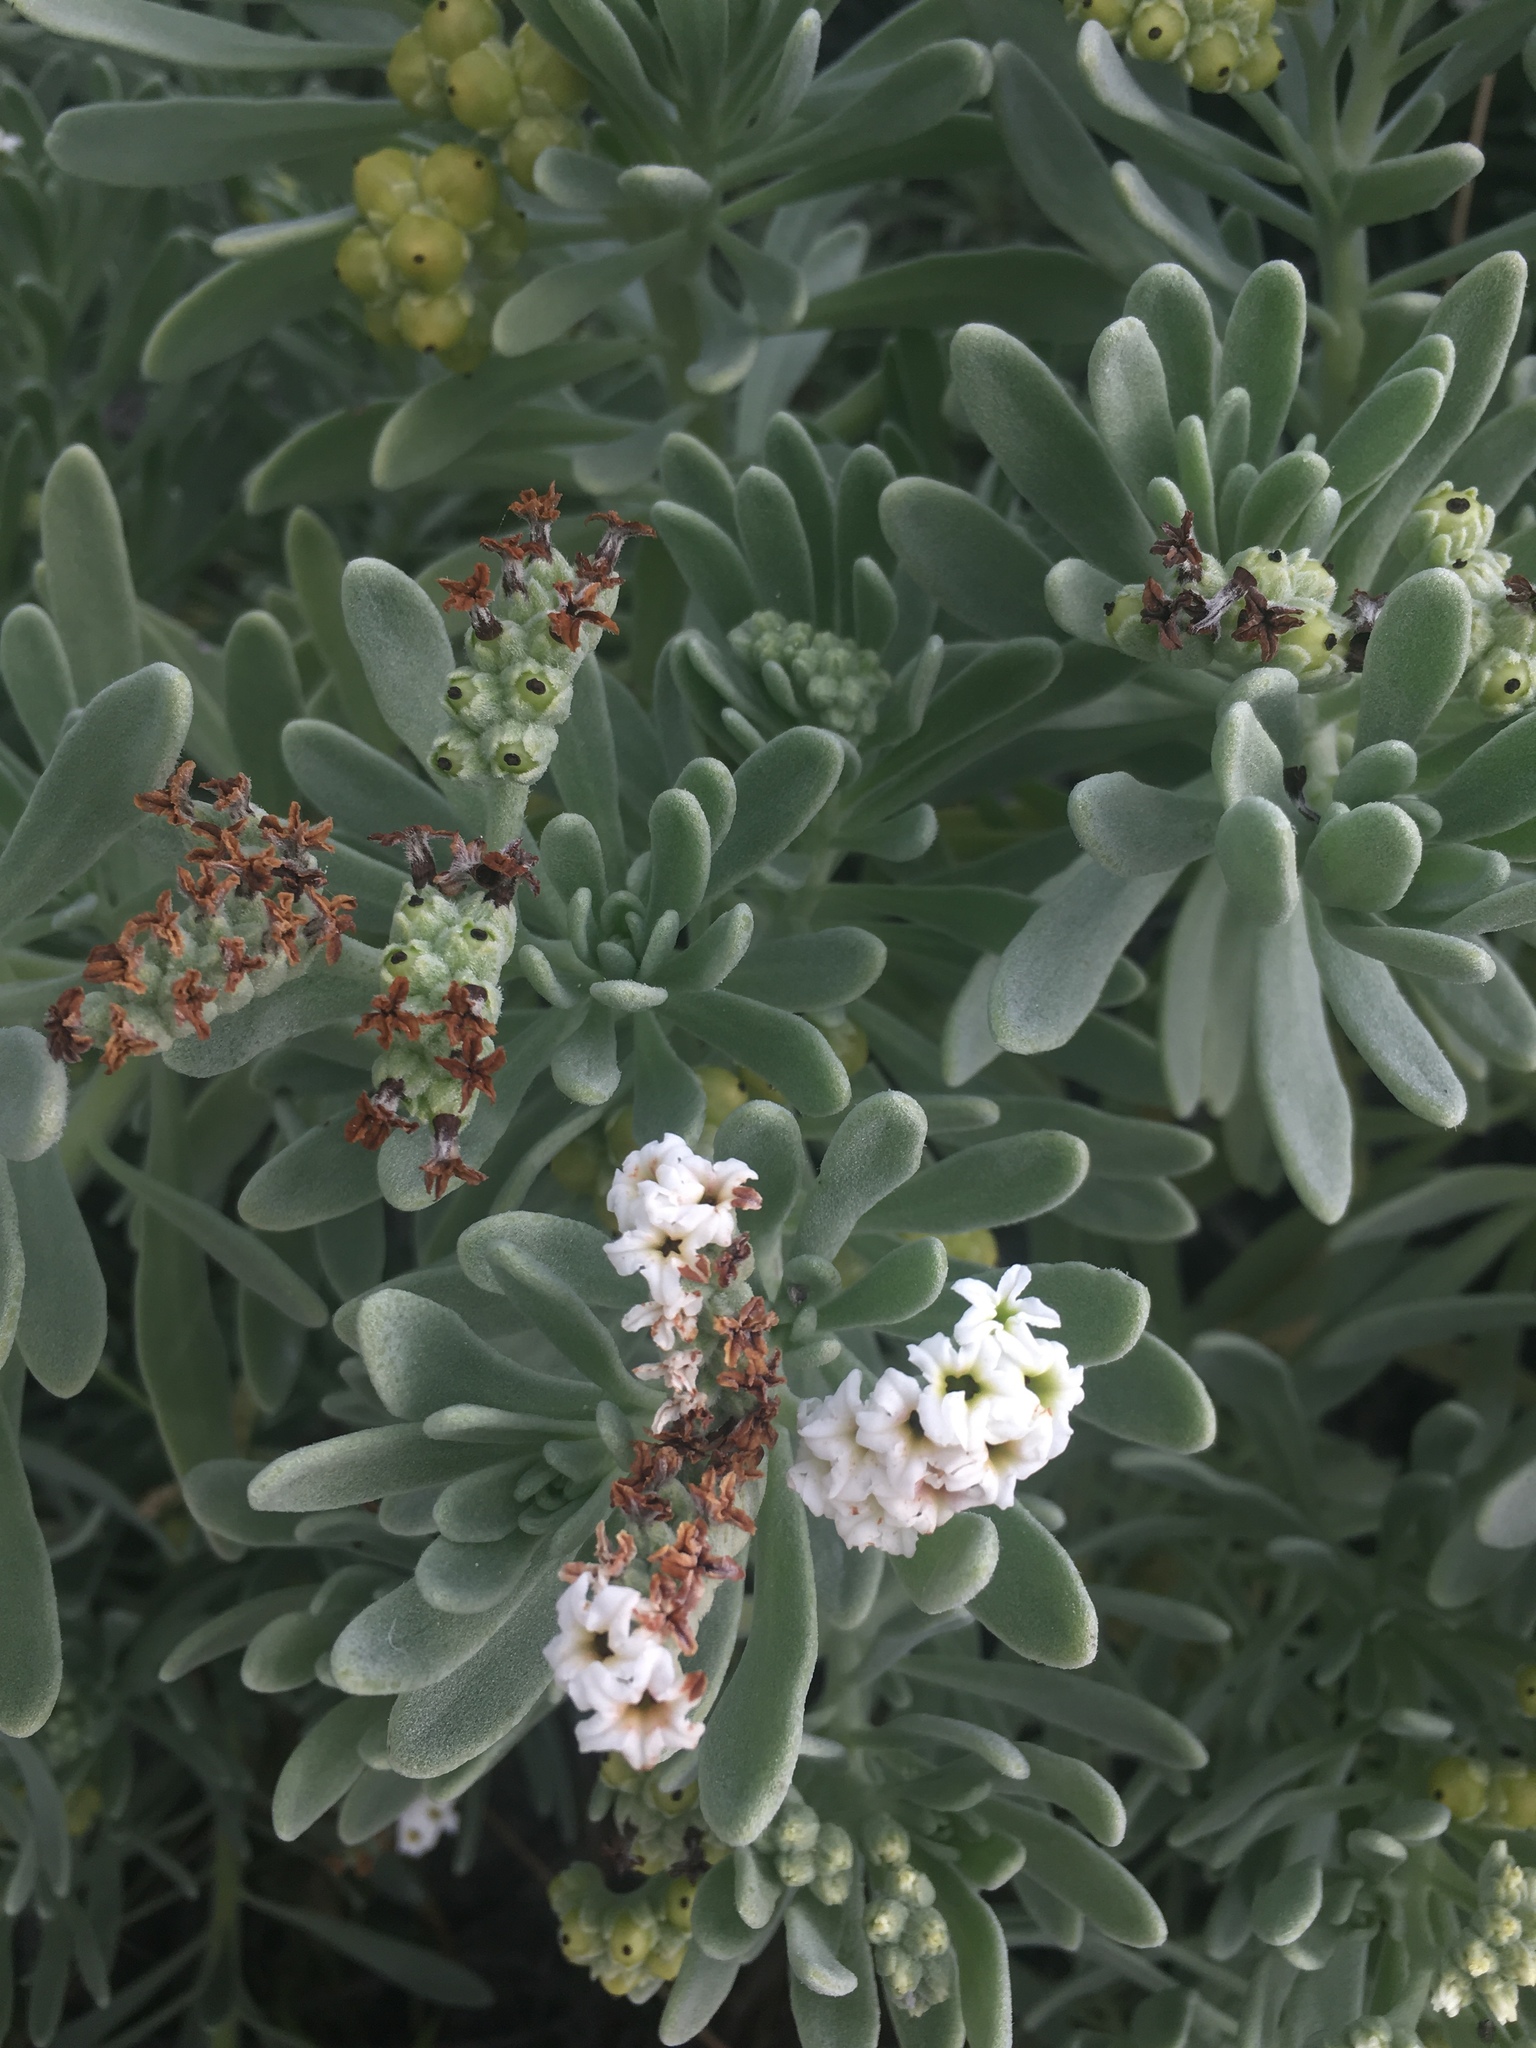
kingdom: Plantae
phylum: Tracheophyta
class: Magnoliopsida
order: Boraginales
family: Heliotropiaceae
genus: Tournefortia
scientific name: Tournefortia gnaphalodes
